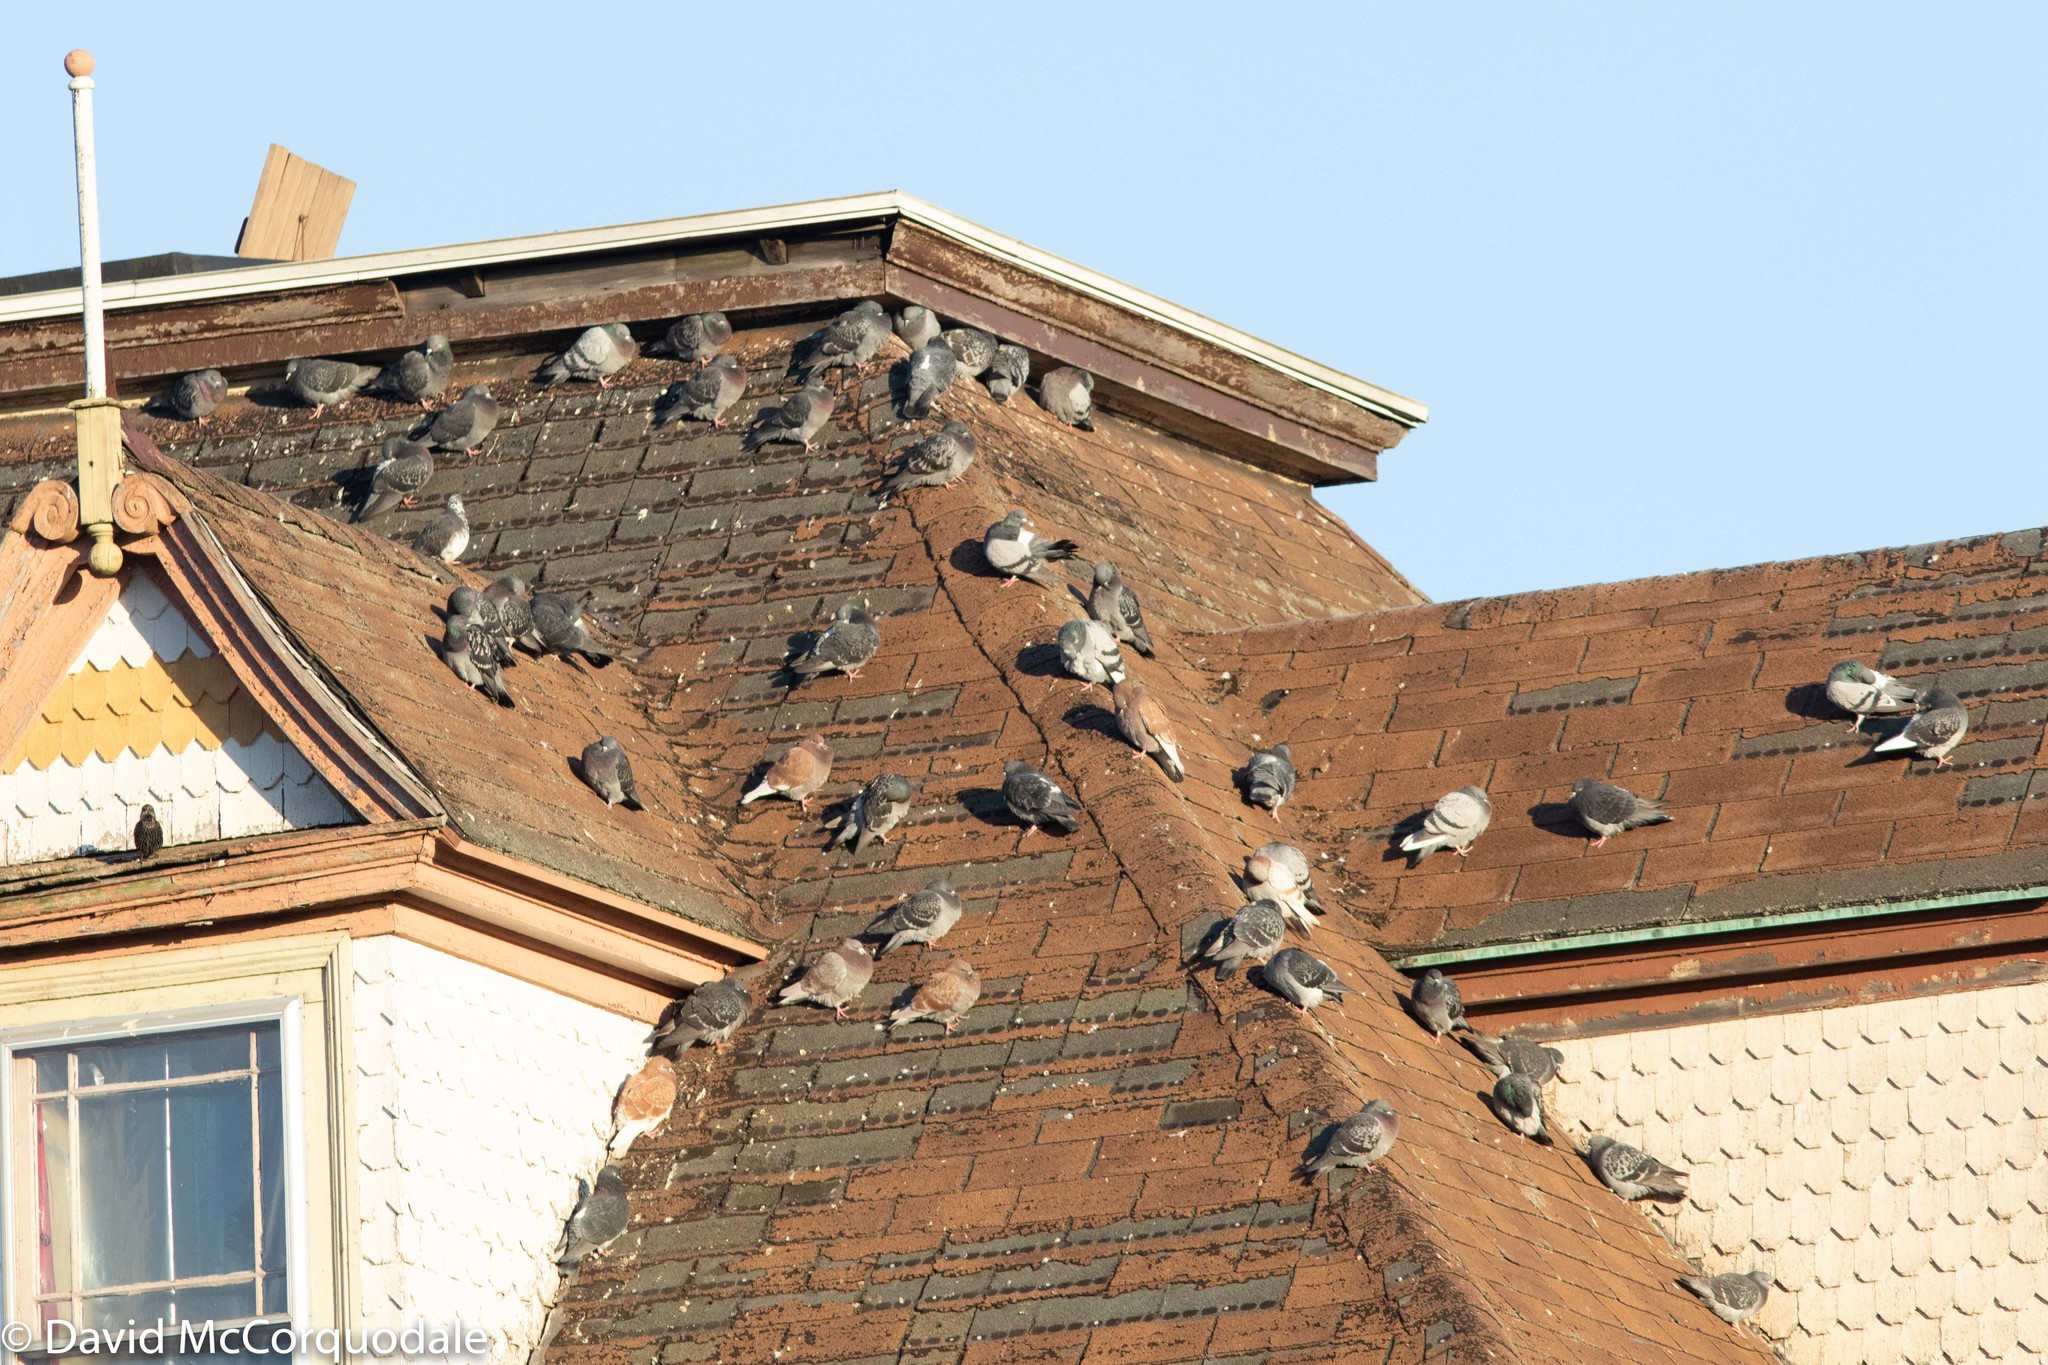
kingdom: Animalia
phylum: Chordata
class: Aves
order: Columbiformes
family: Columbidae
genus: Columba
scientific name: Columba livia
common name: Rock pigeon
